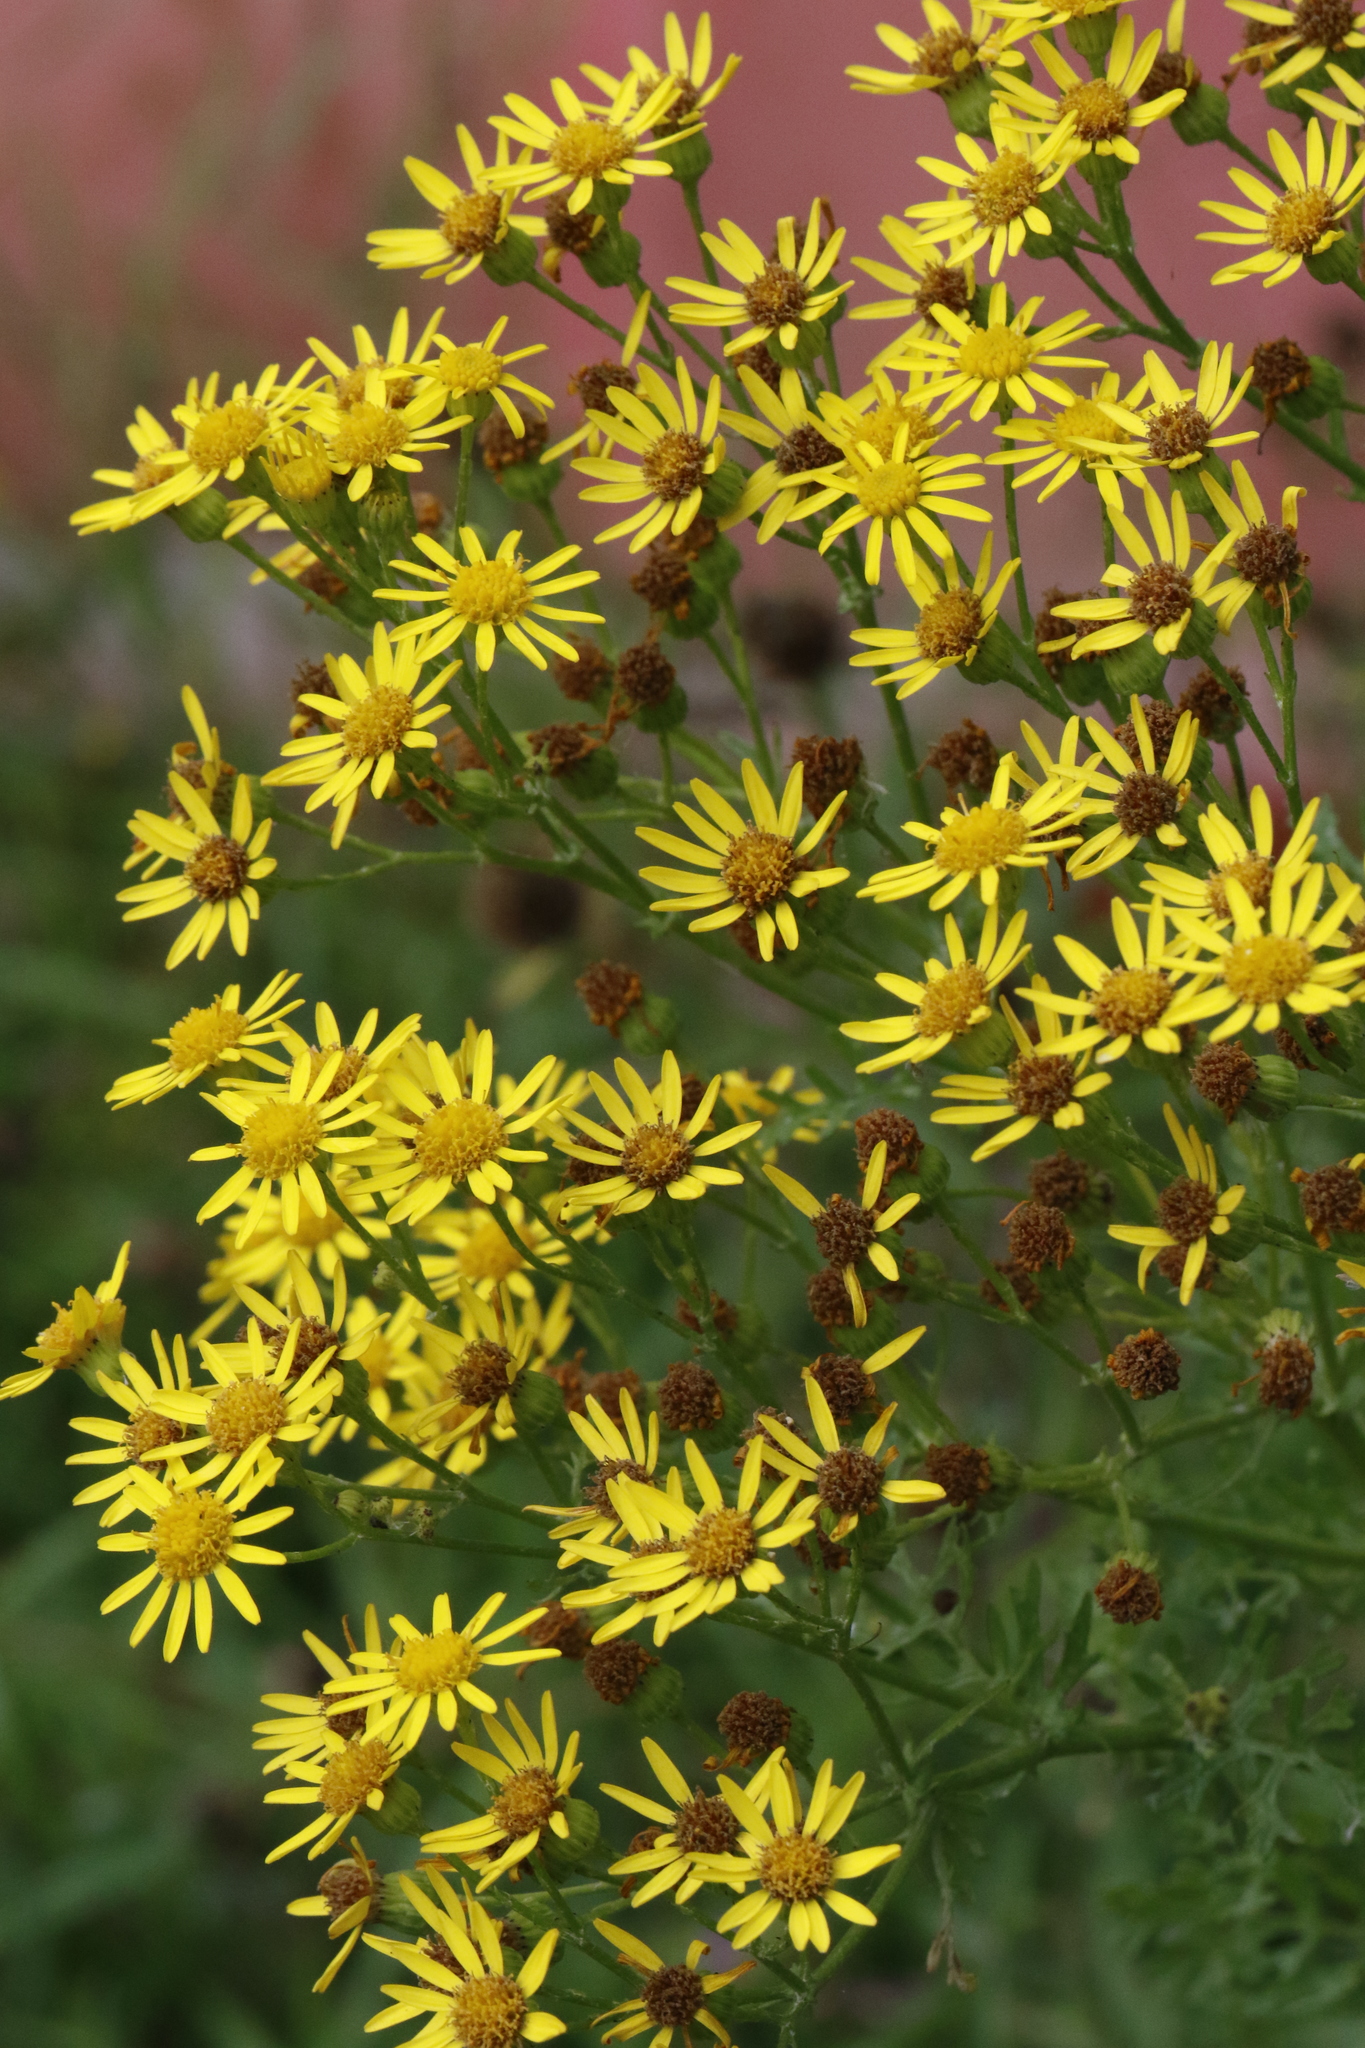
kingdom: Plantae
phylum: Tracheophyta
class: Magnoliopsida
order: Asterales
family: Asteraceae
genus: Jacobaea
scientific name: Jacobaea vulgaris
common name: Stinking willie
